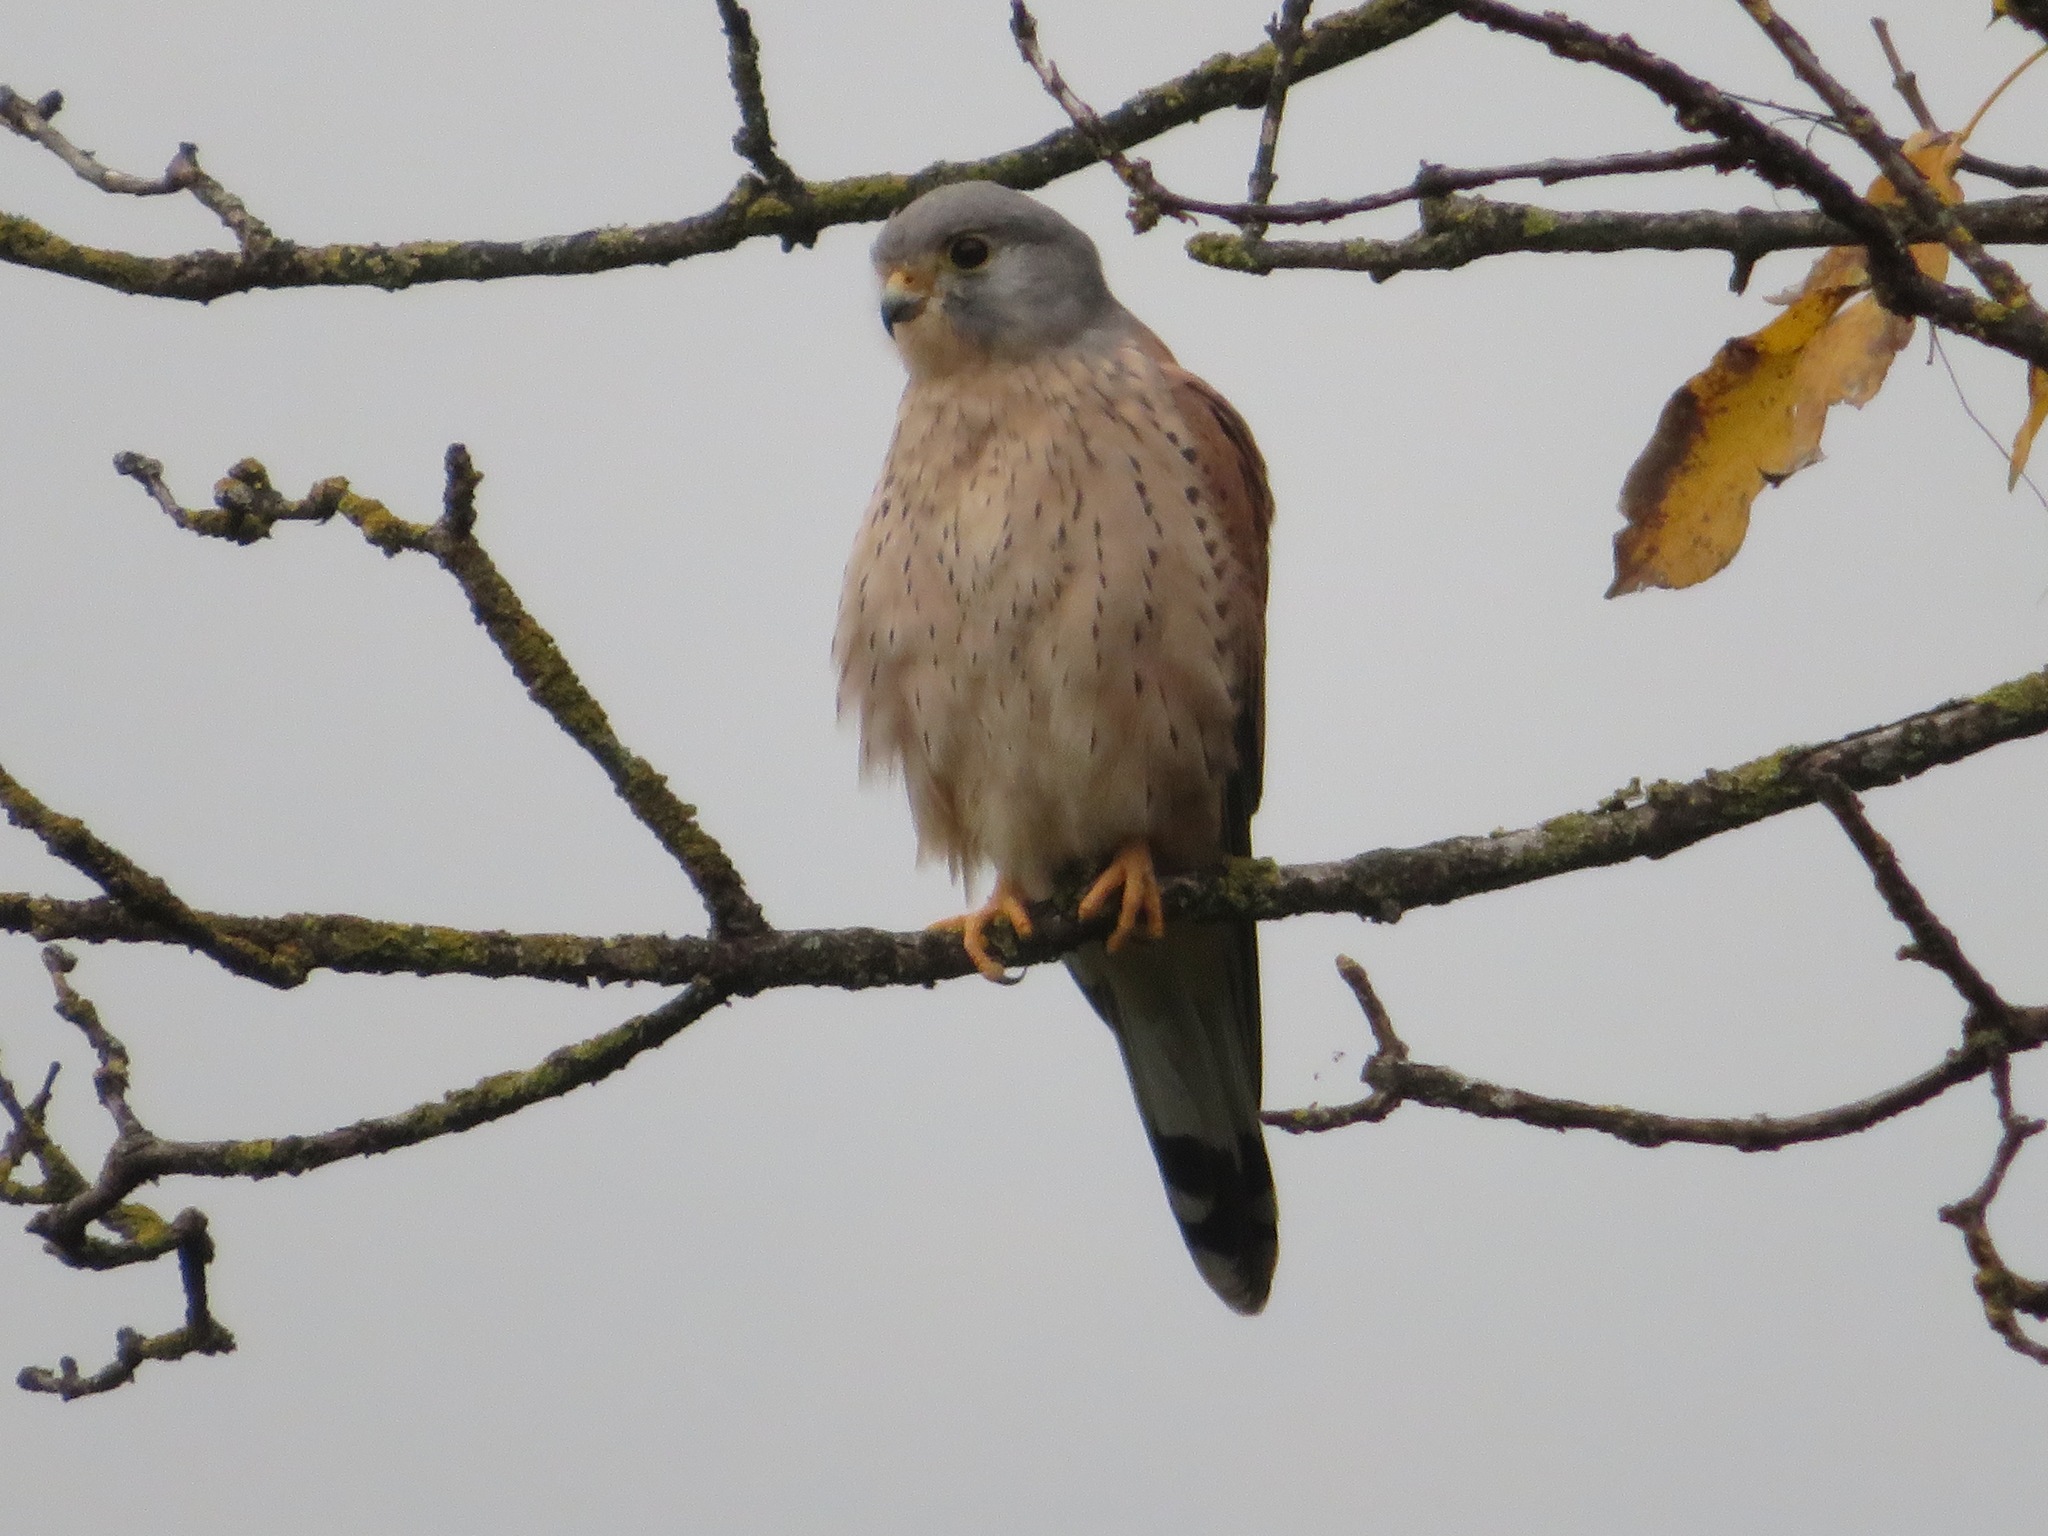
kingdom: Animalia
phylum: Chordata
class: Aves
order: Falconiformes
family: Falconidae
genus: Falco
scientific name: Falco tinnunculus
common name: Common kestrel
